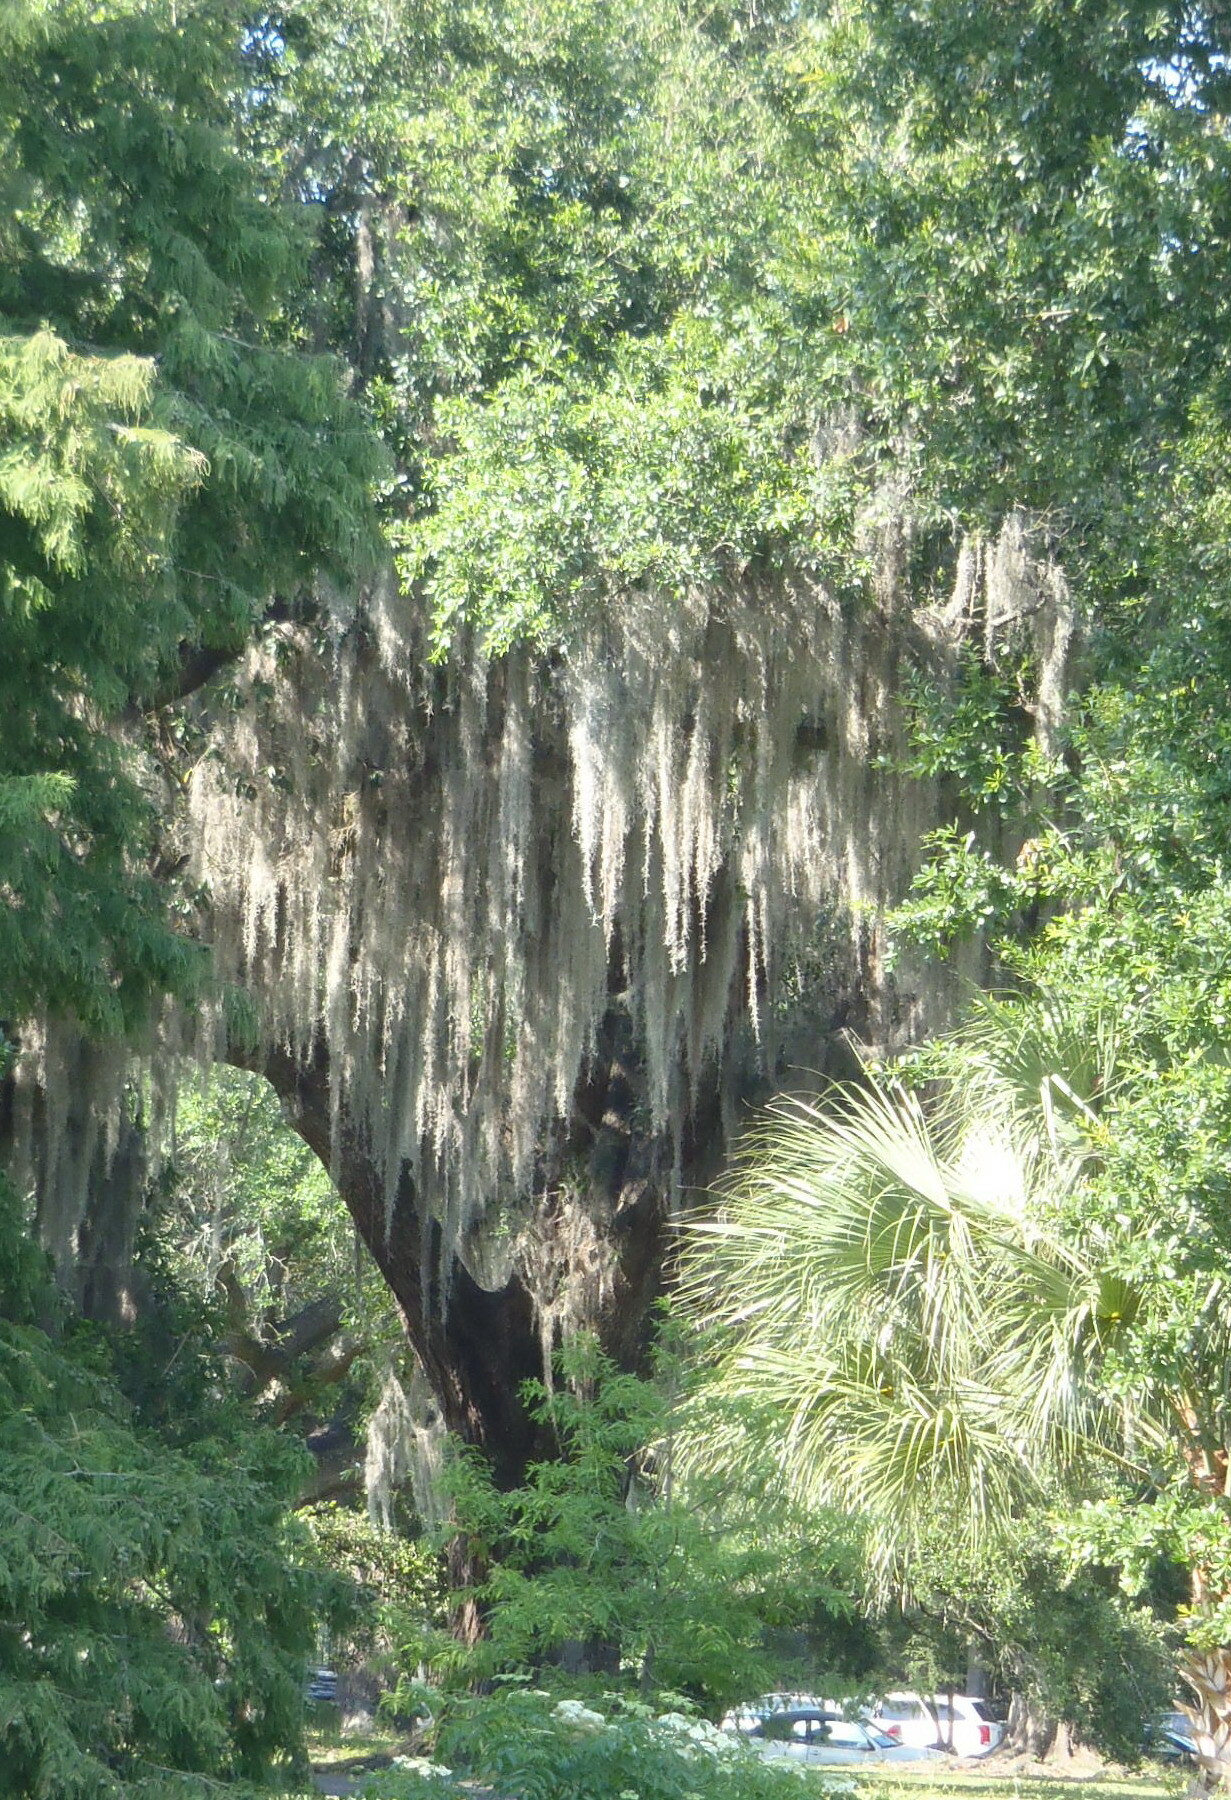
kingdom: Plantae
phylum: Tracheophyta
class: Liliopsida
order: Poales
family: Bromeliaceae
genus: Tillandsia
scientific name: Tillandsia usneoides
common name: Spanish moss
